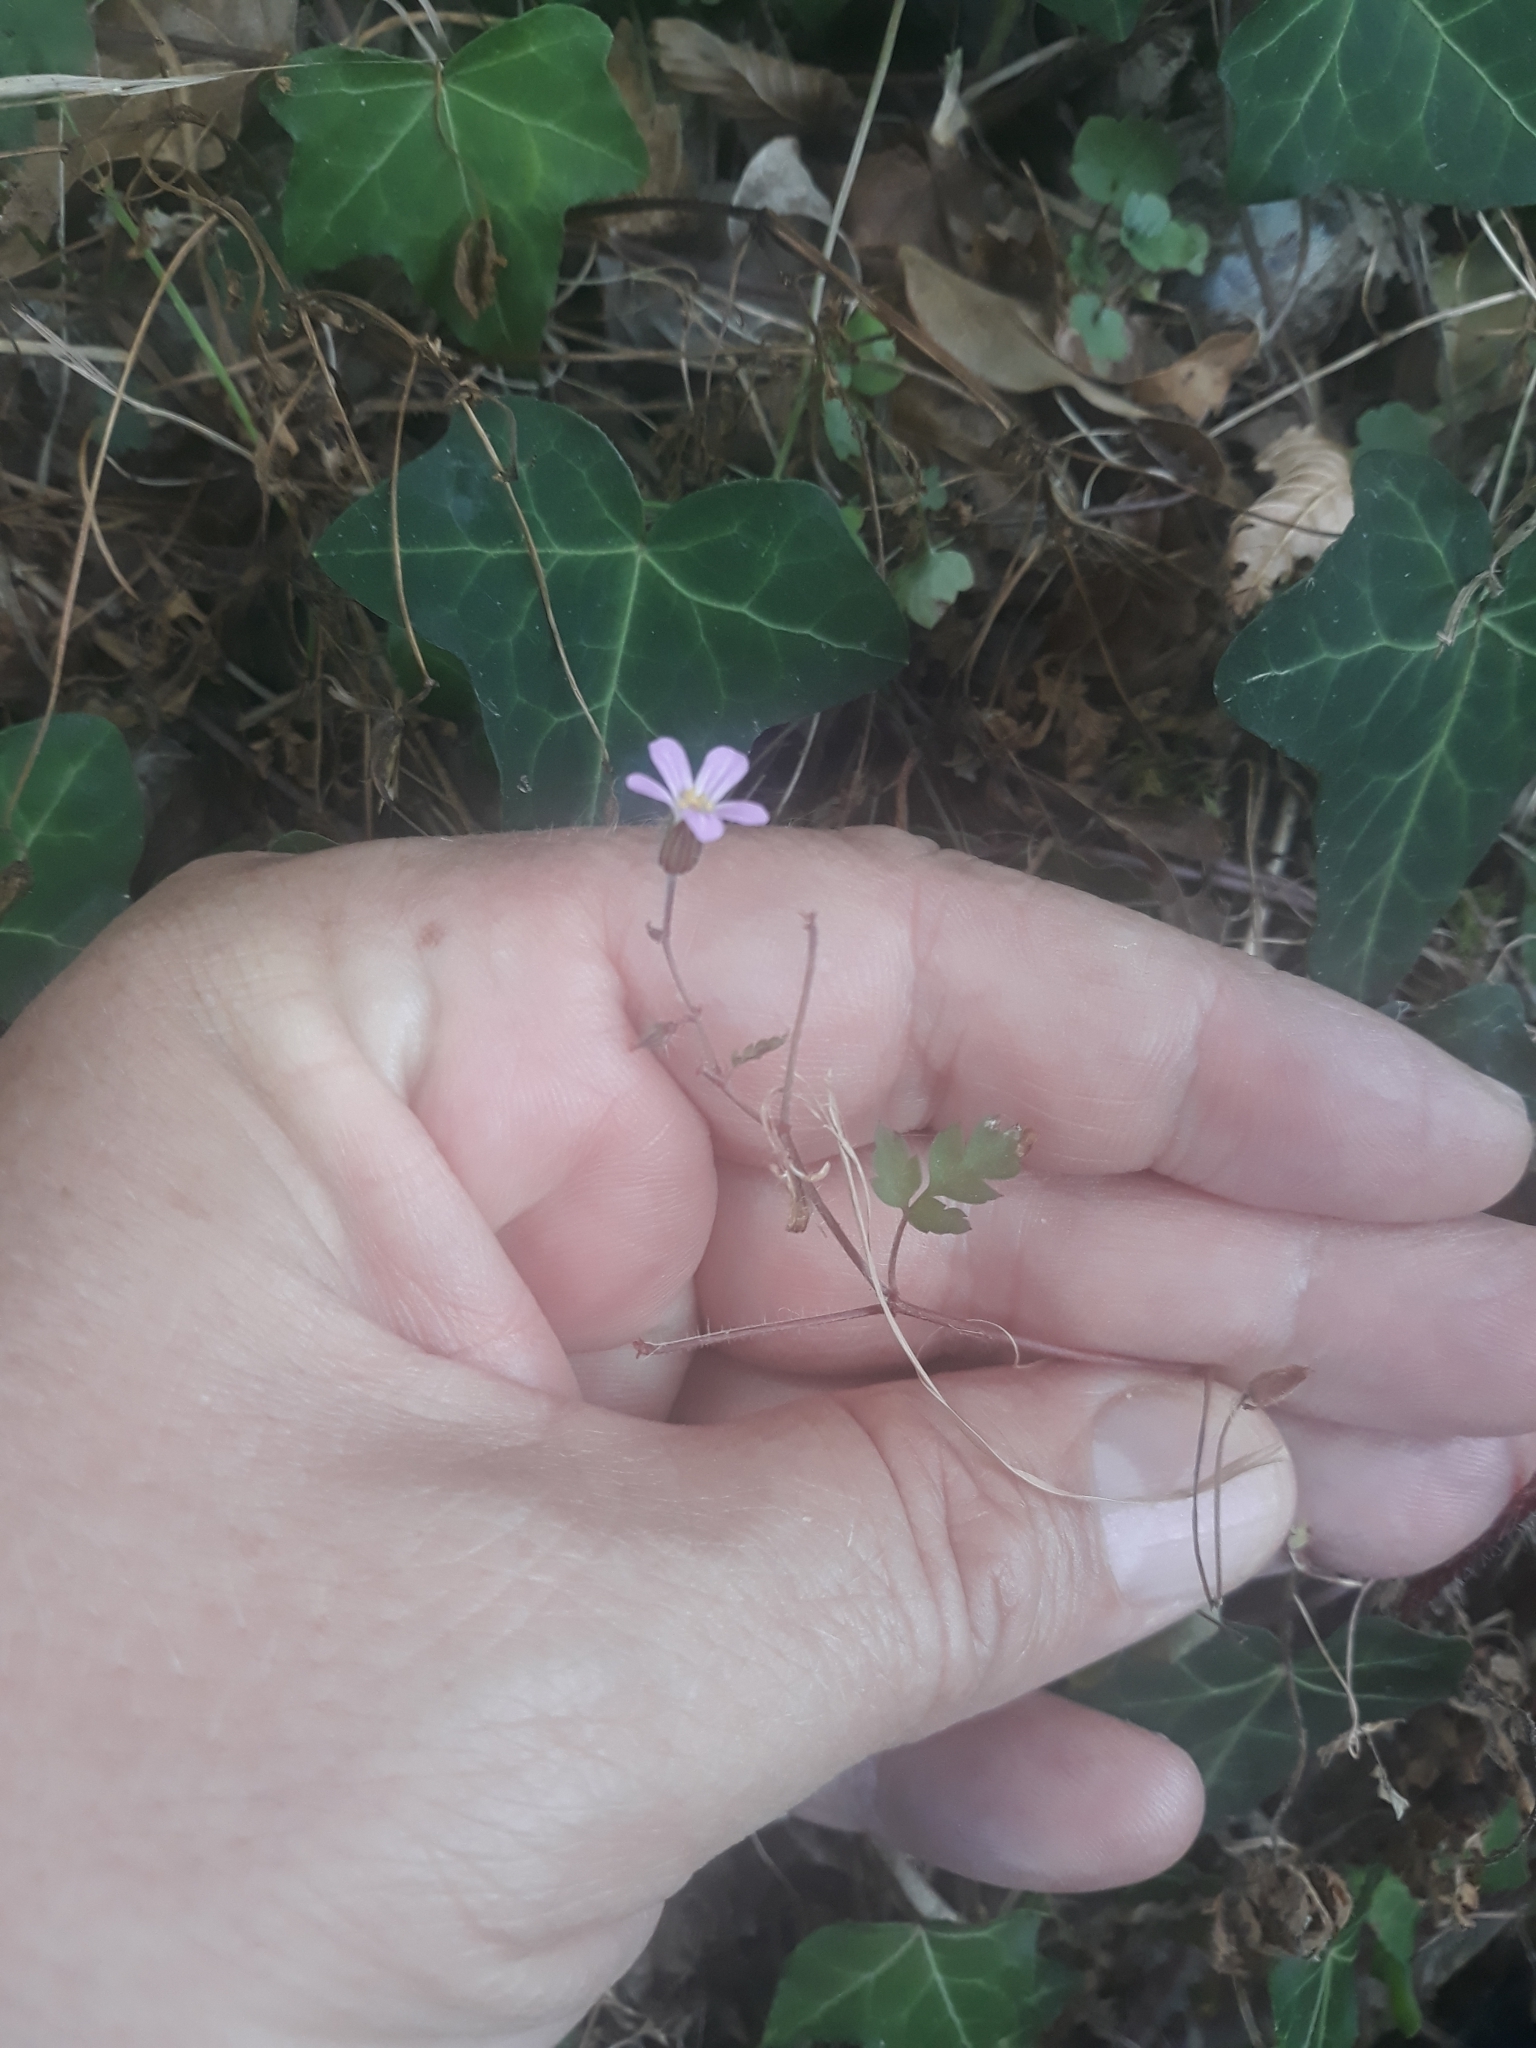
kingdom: Plantae
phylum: Tracheophyta
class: Magnoliopsida
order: Geraniales
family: Geraniaceae
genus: Geranium
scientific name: Geranium purpureum
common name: Little-robin
